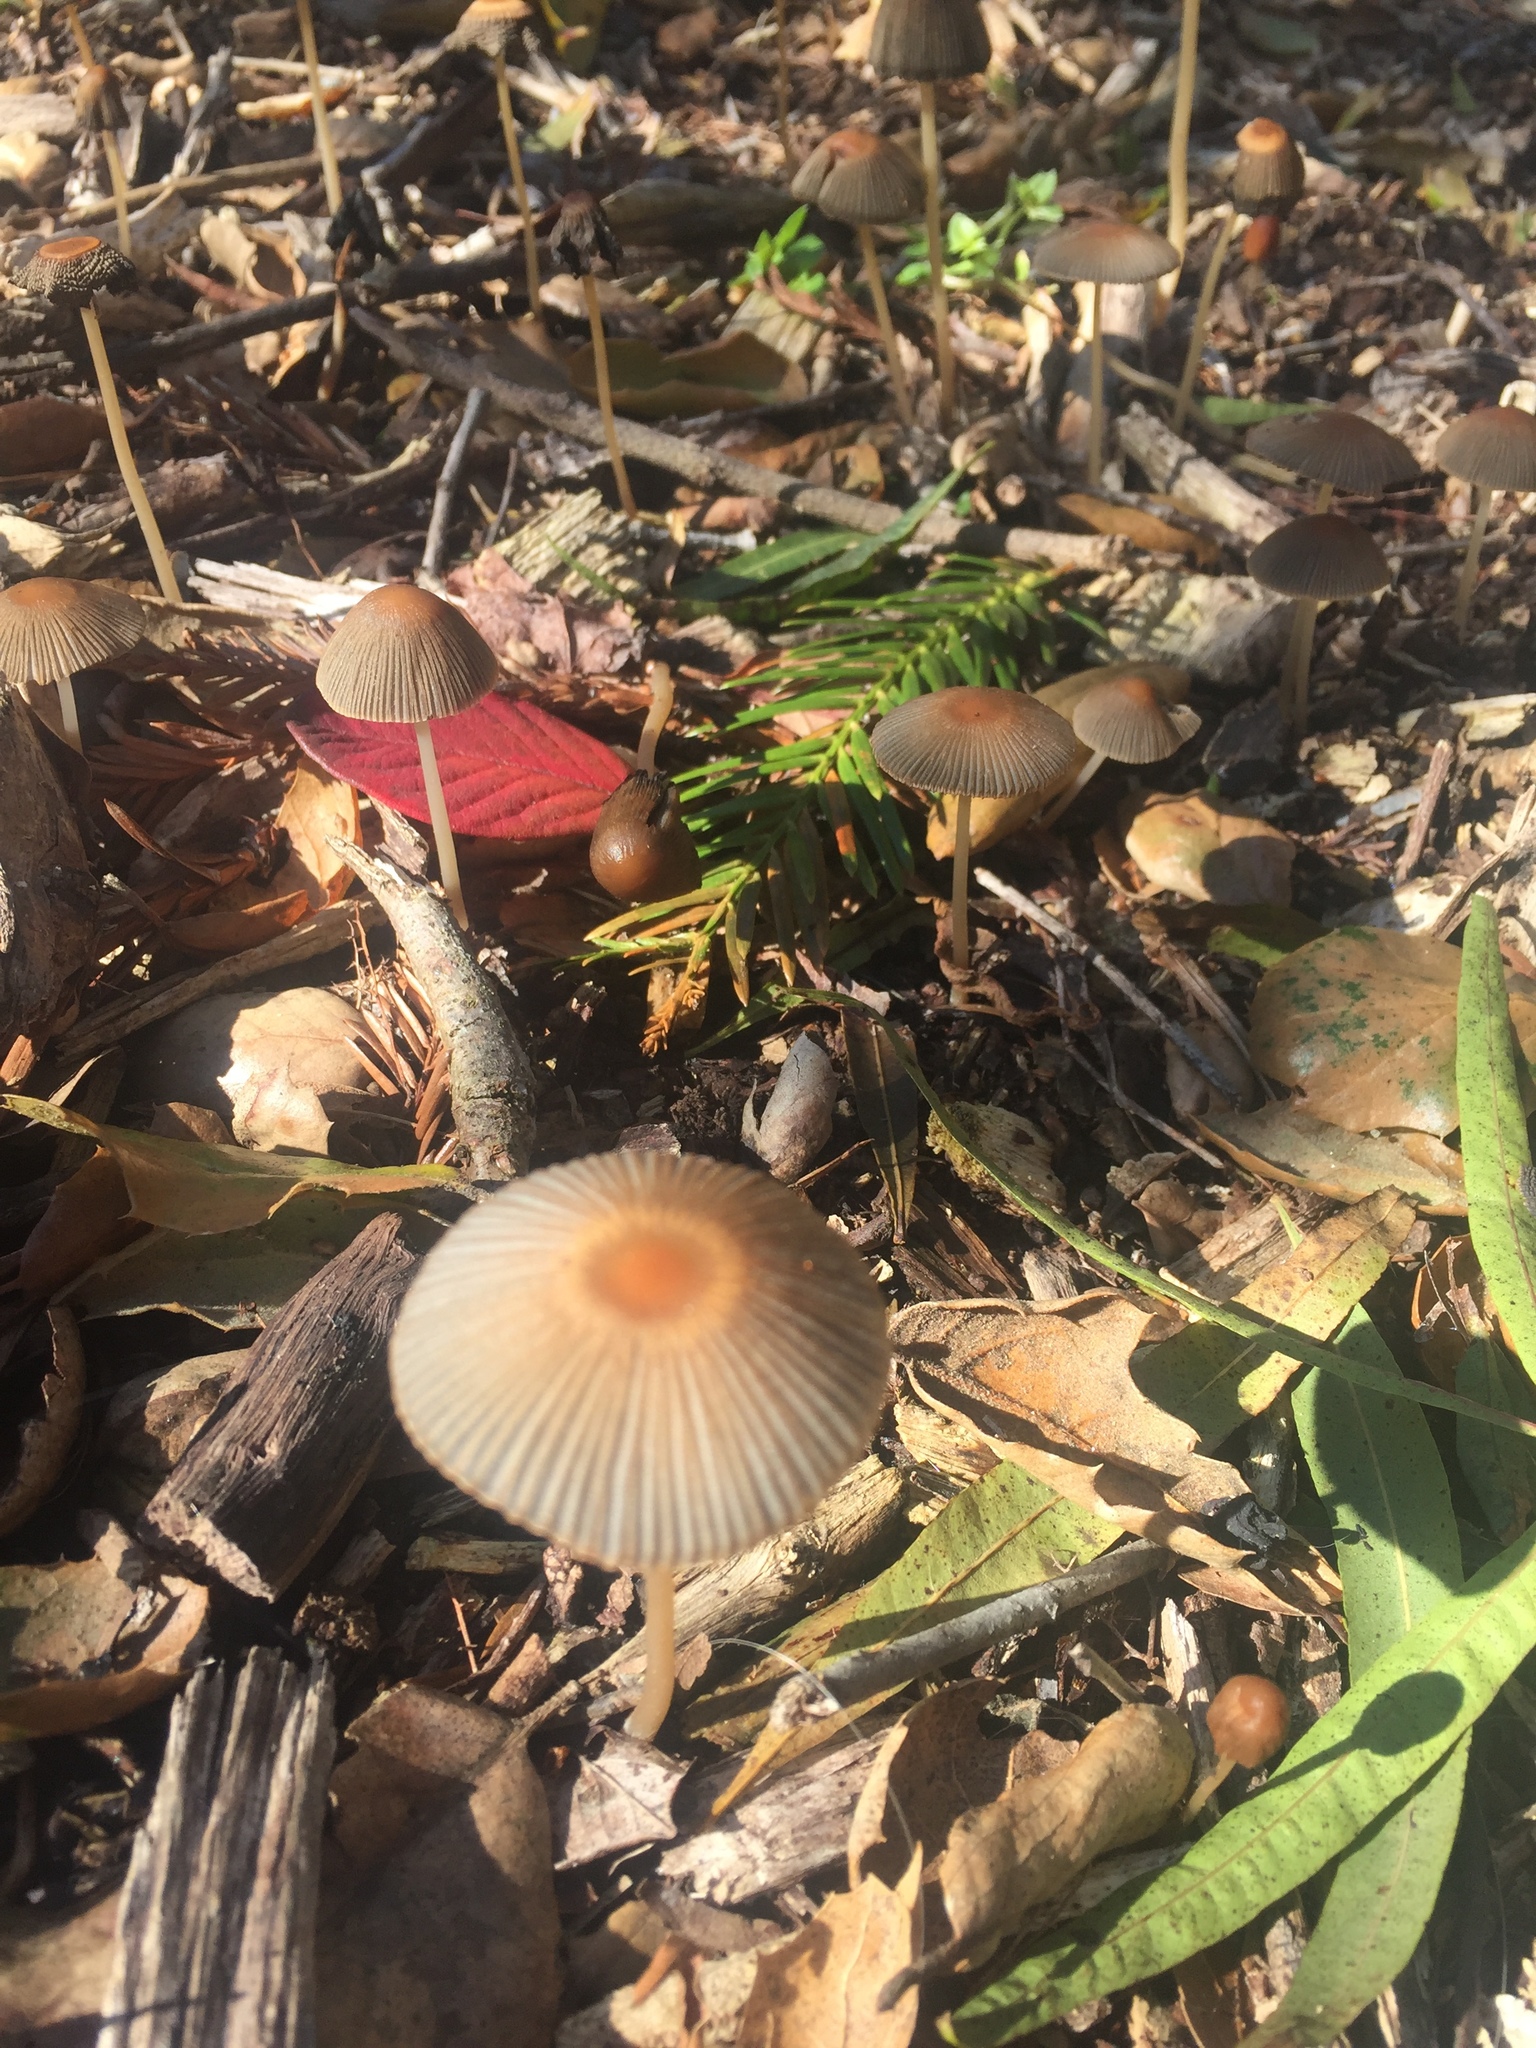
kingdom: Fungi
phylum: Basidiomycota
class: Agaricomycetes
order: Agaricales
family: Psathyrellaceae
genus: Parasola
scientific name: Parasola auricoma
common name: Goldenhaired inkcap
